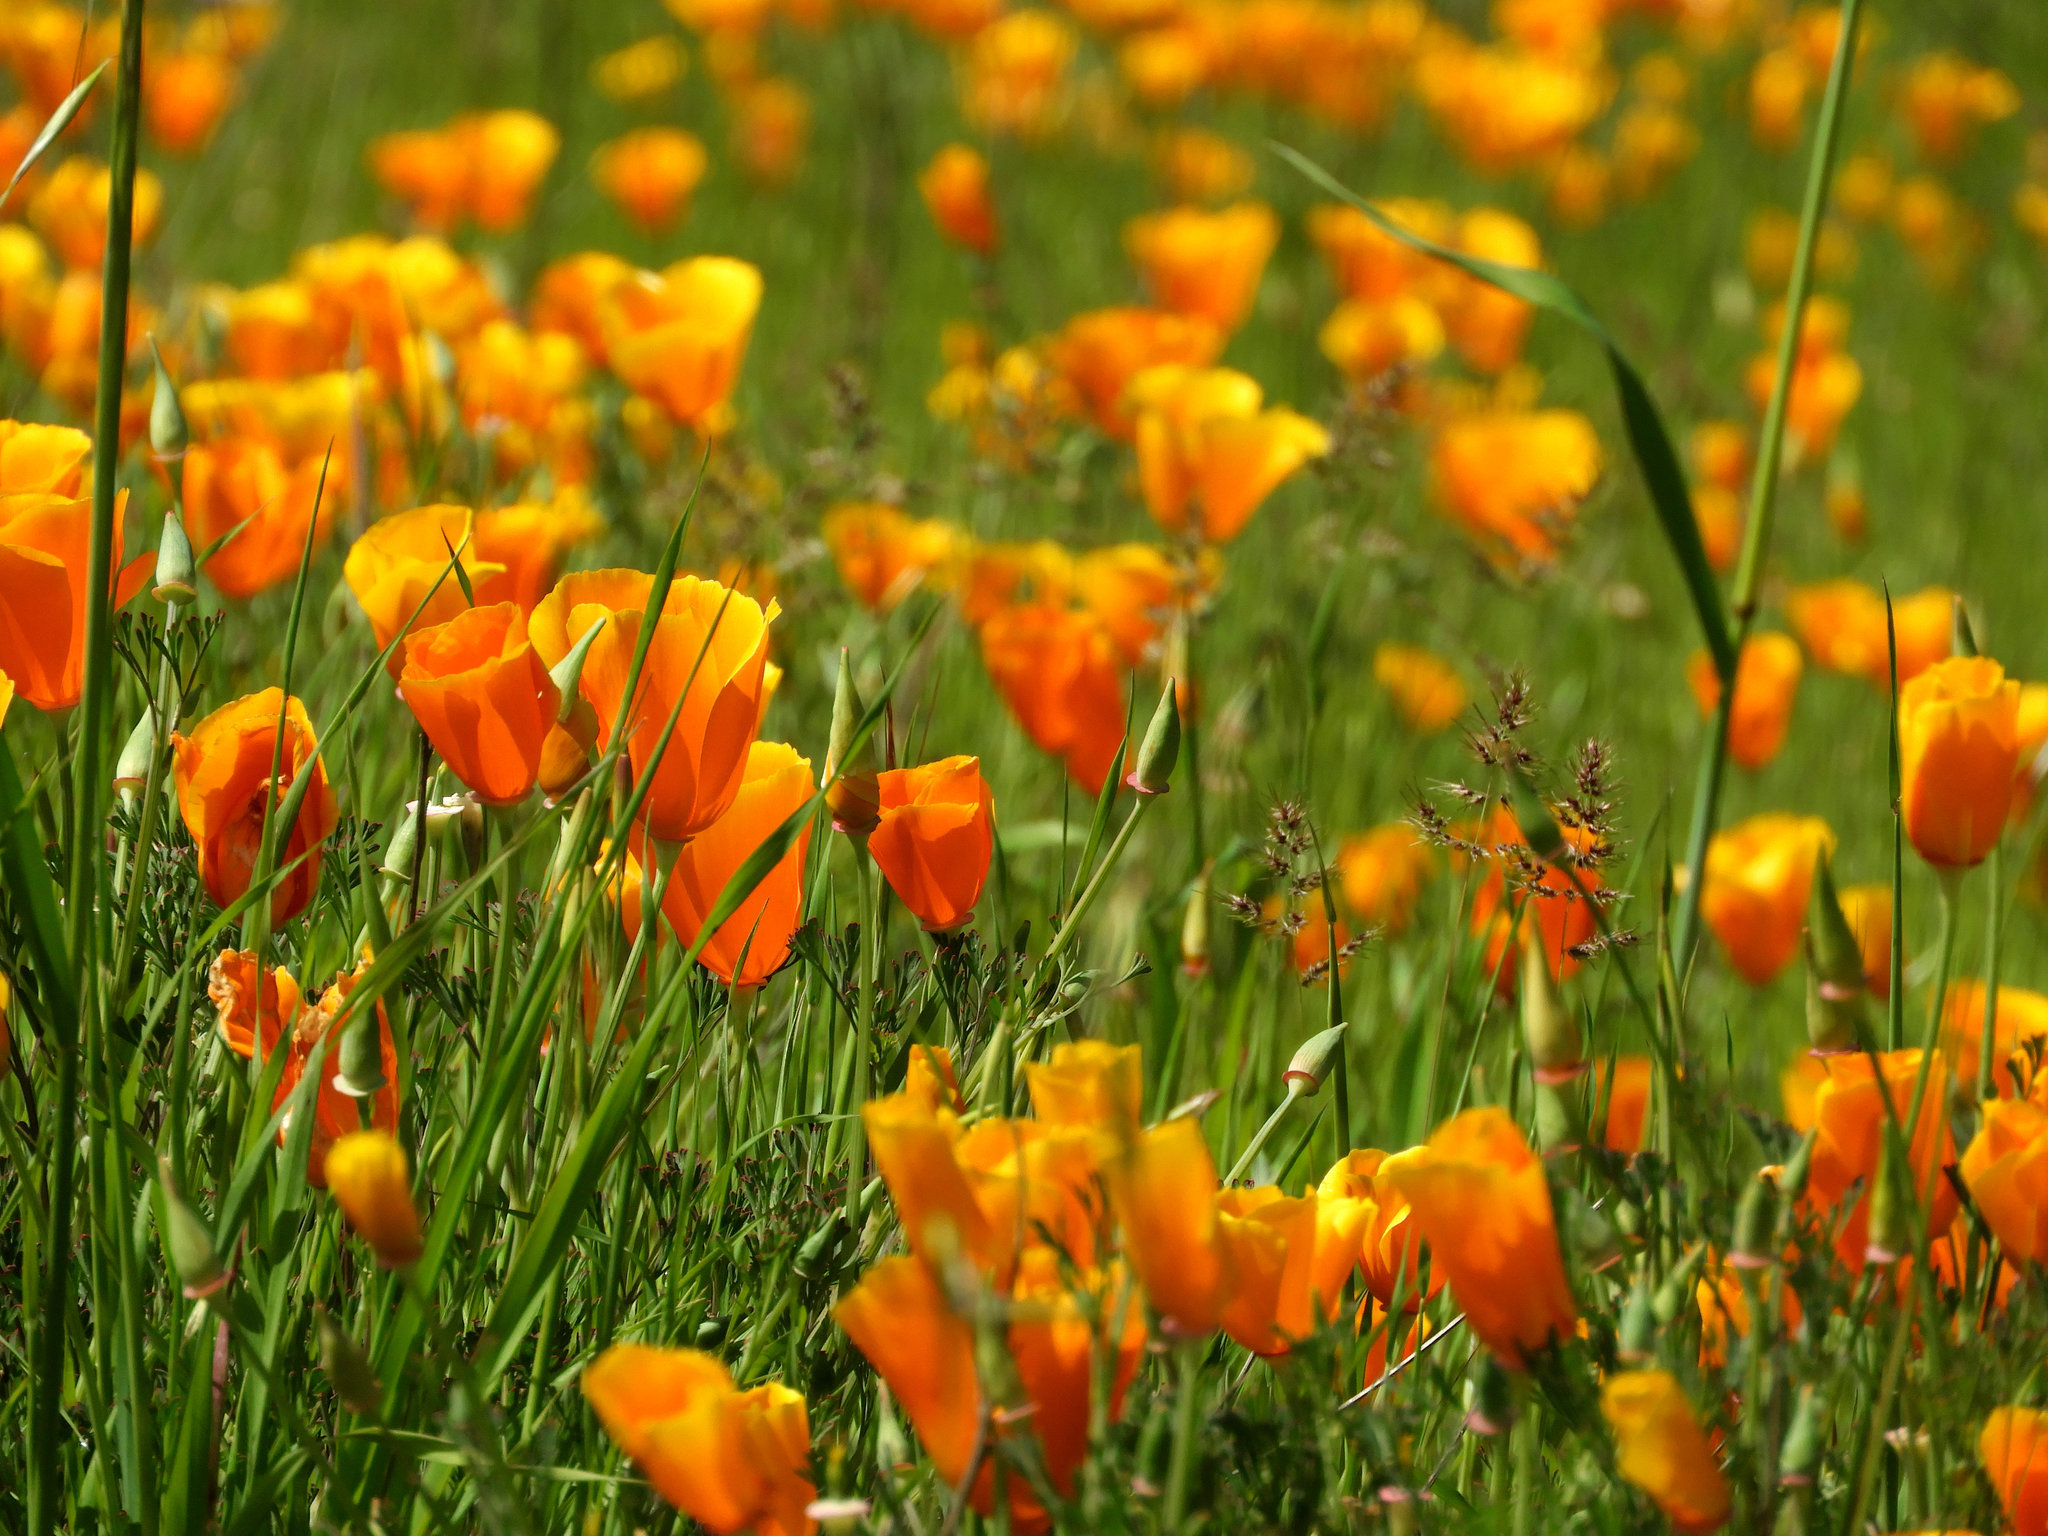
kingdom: Plantae
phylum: Tracheophyta
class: Magnoliopsida
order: Ranunculales
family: Papaveraceae
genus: Eschscholzia
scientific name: Eschscholzia californica
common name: California poppy
